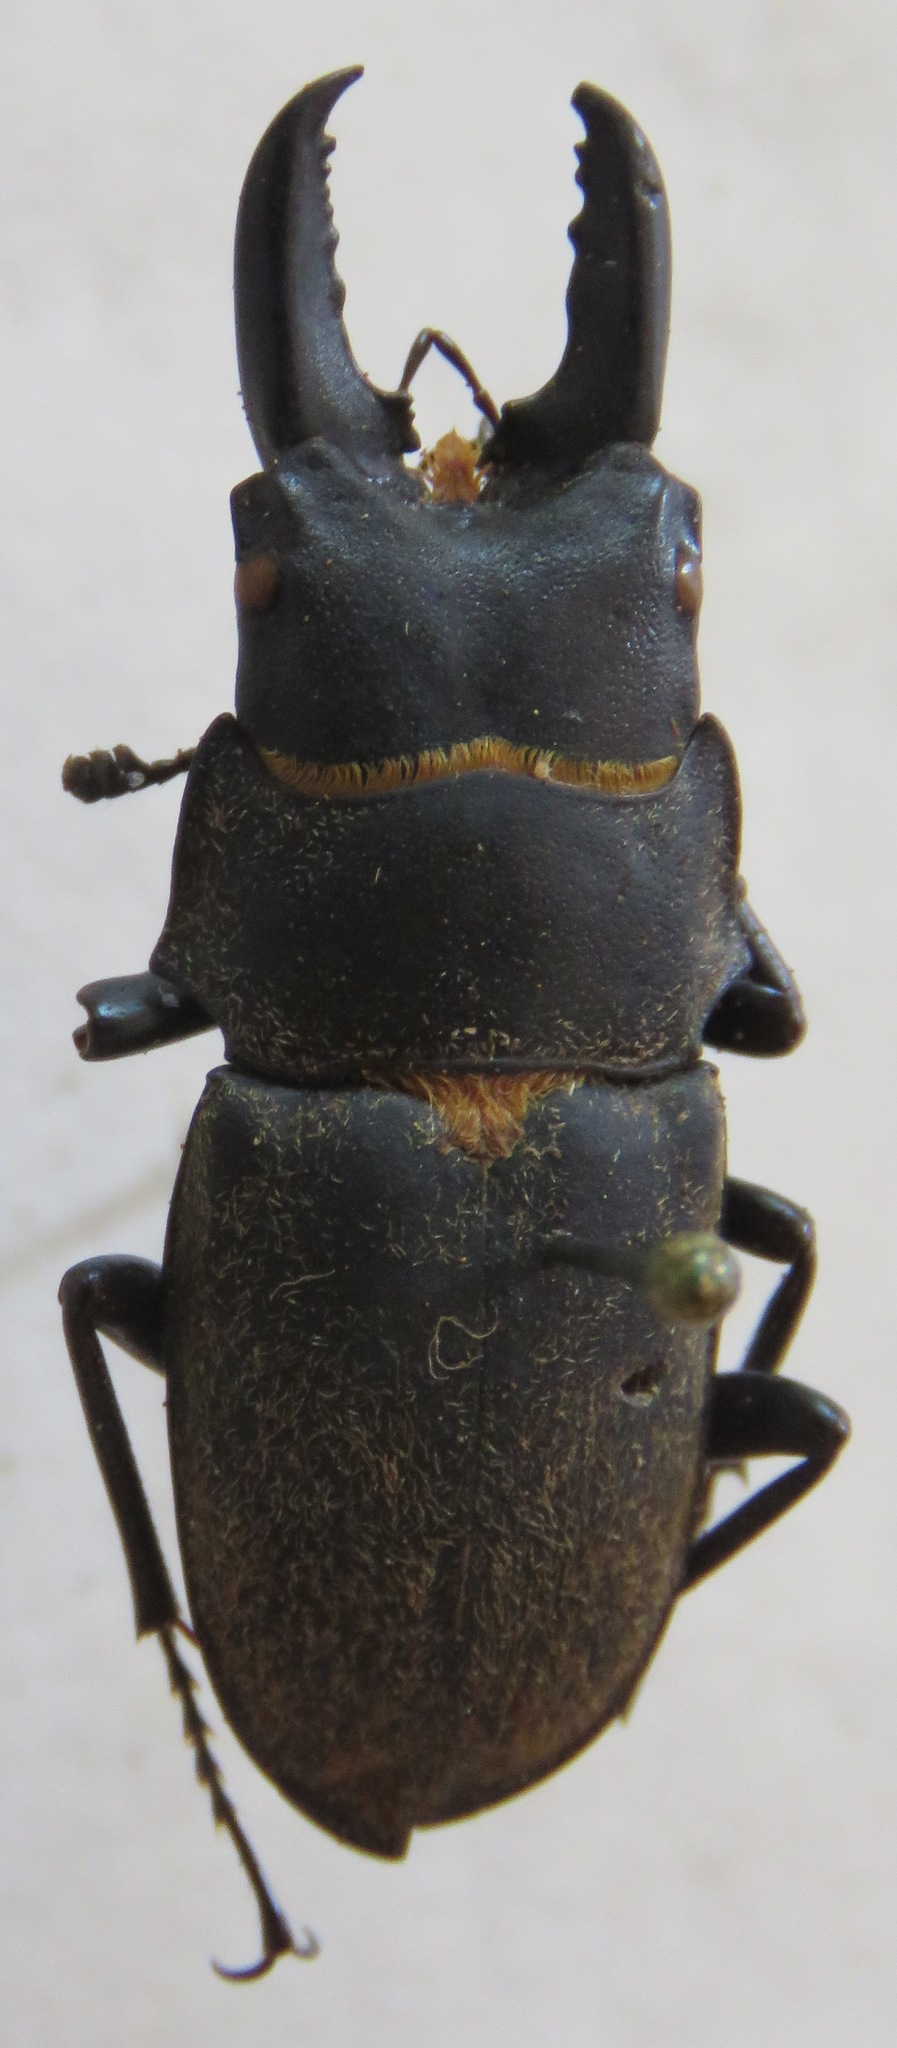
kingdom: Animalia
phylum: Arthropoda
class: Insecta
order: Coleoptera
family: Lucanidae
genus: Leptinopterus
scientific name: Leptinopterus fryi
